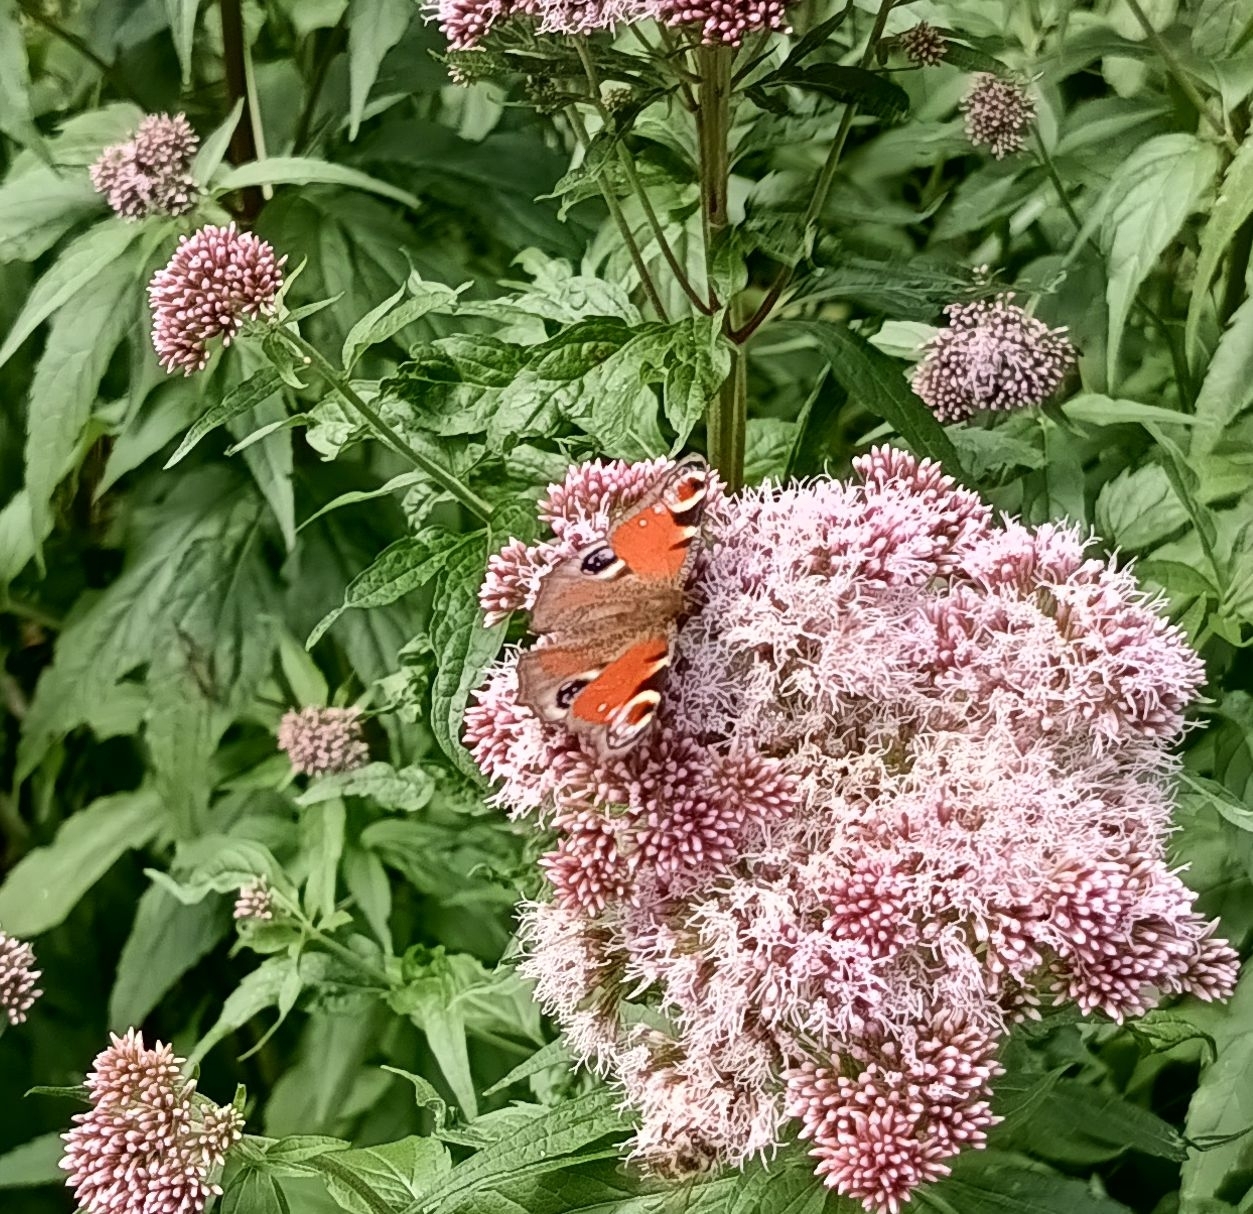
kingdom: Animalia
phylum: Arthropoda
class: Insecta
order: Lepidoptera
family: Nymphalidae
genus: Aglais
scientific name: Aglais io
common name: Peacock
